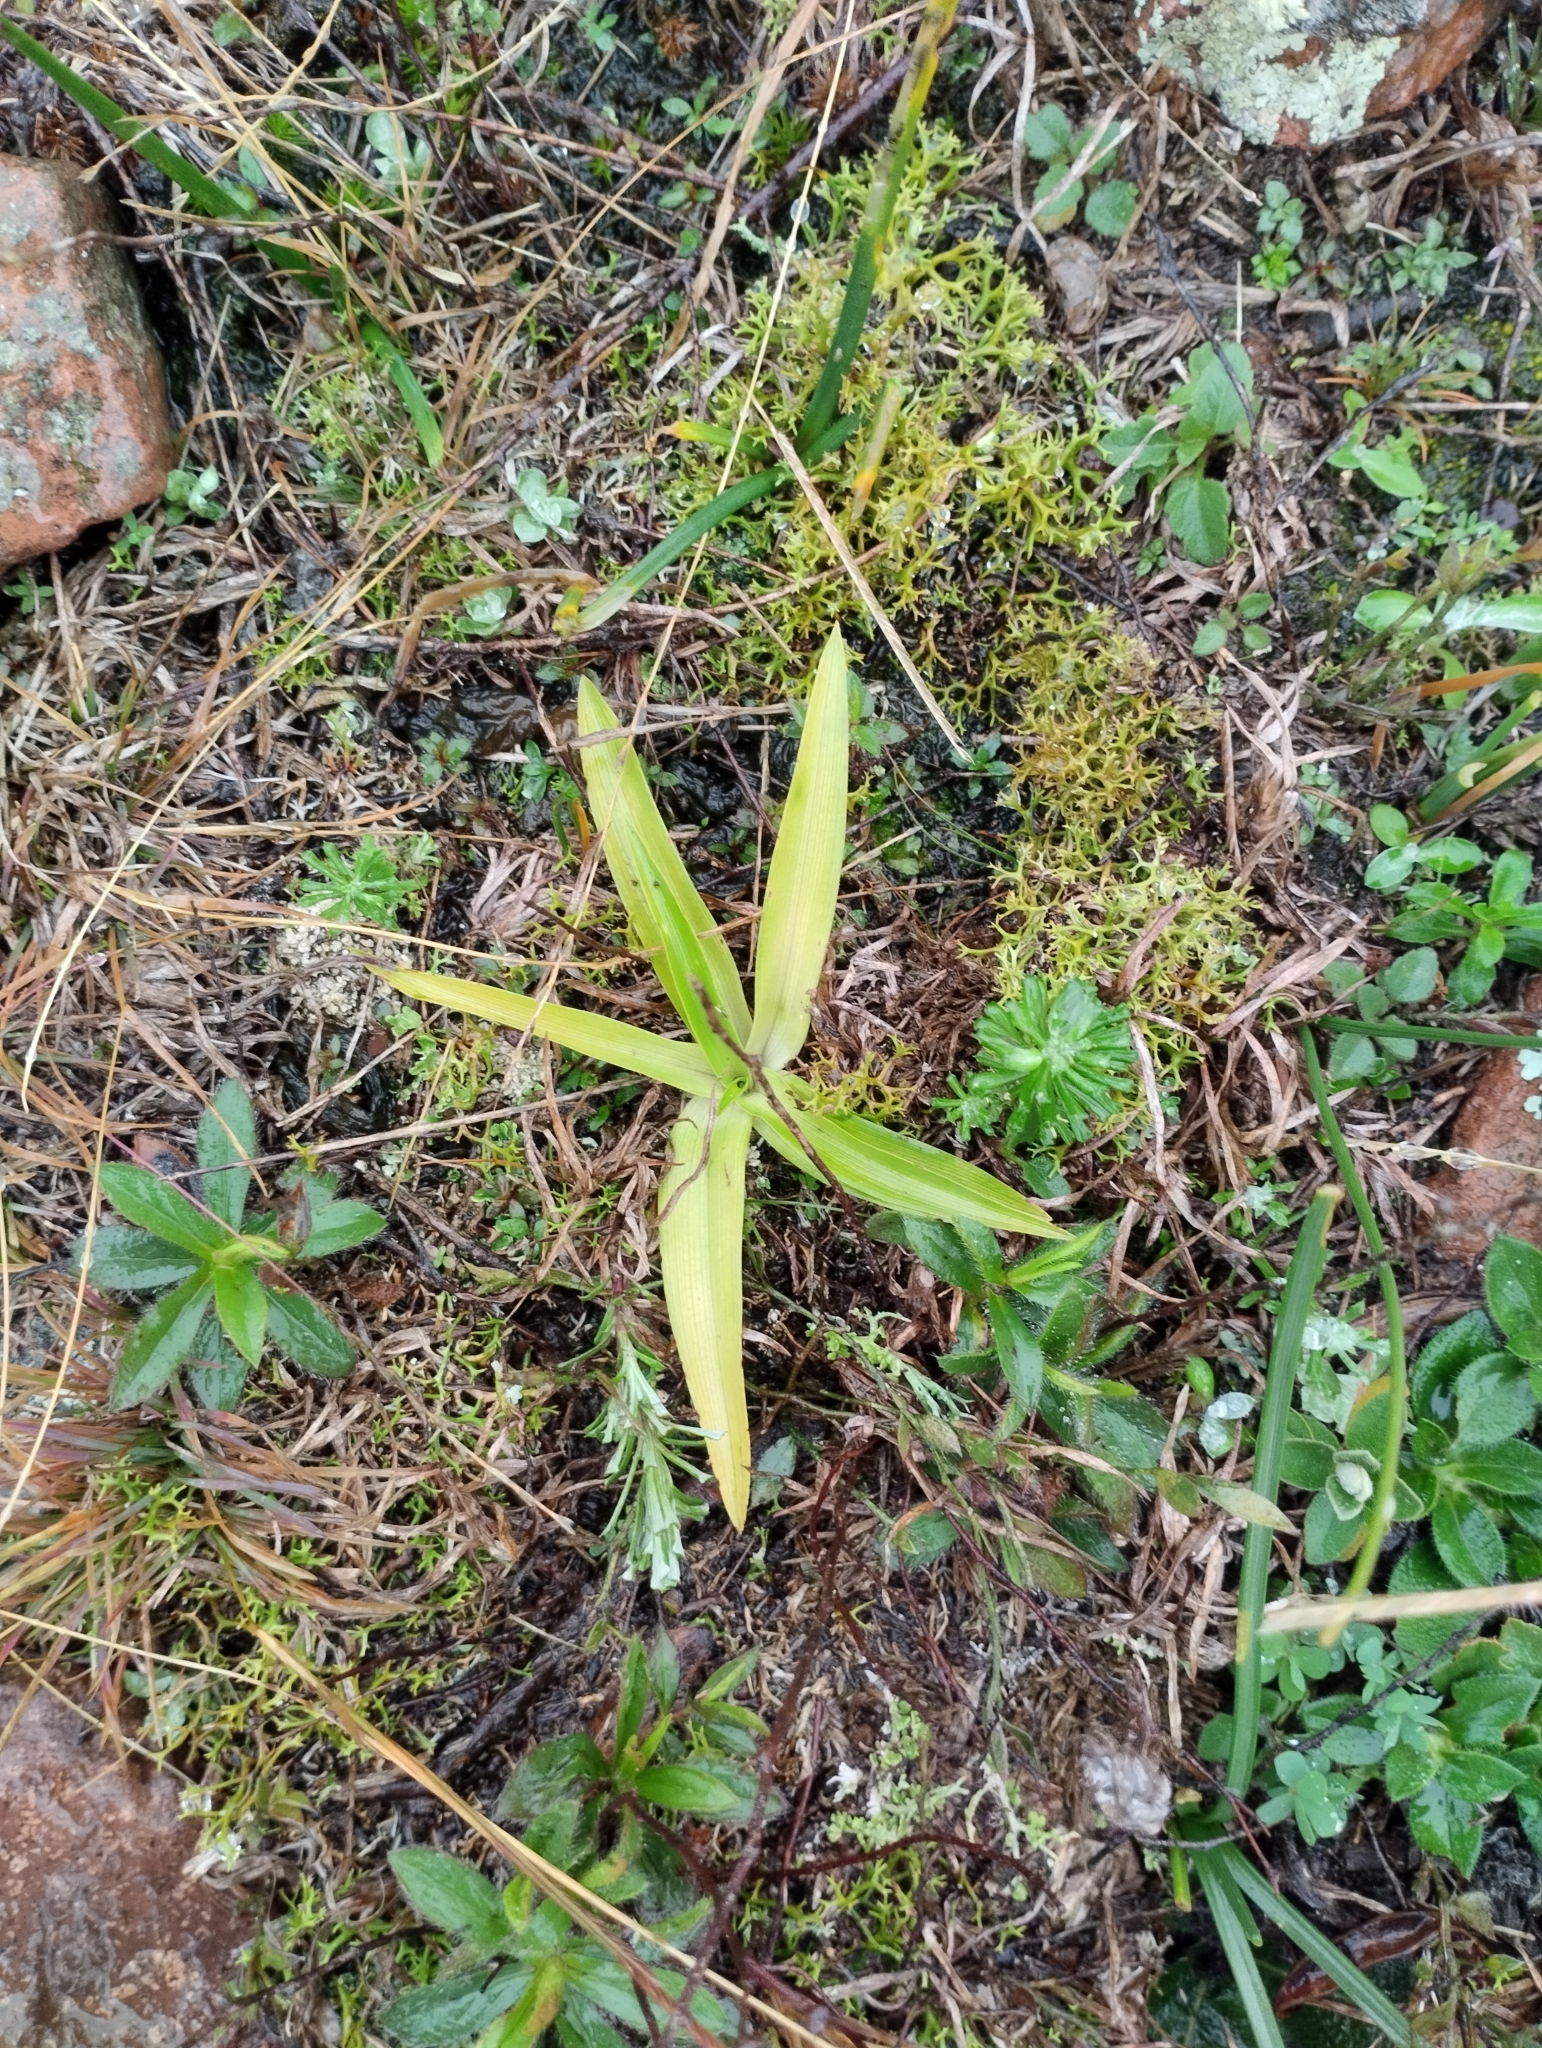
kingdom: Plantae
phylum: Tracheophyta
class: Liliopsida
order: Asparagales
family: Orchidaceae
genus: Chloraea
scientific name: Chloraea membranacea
